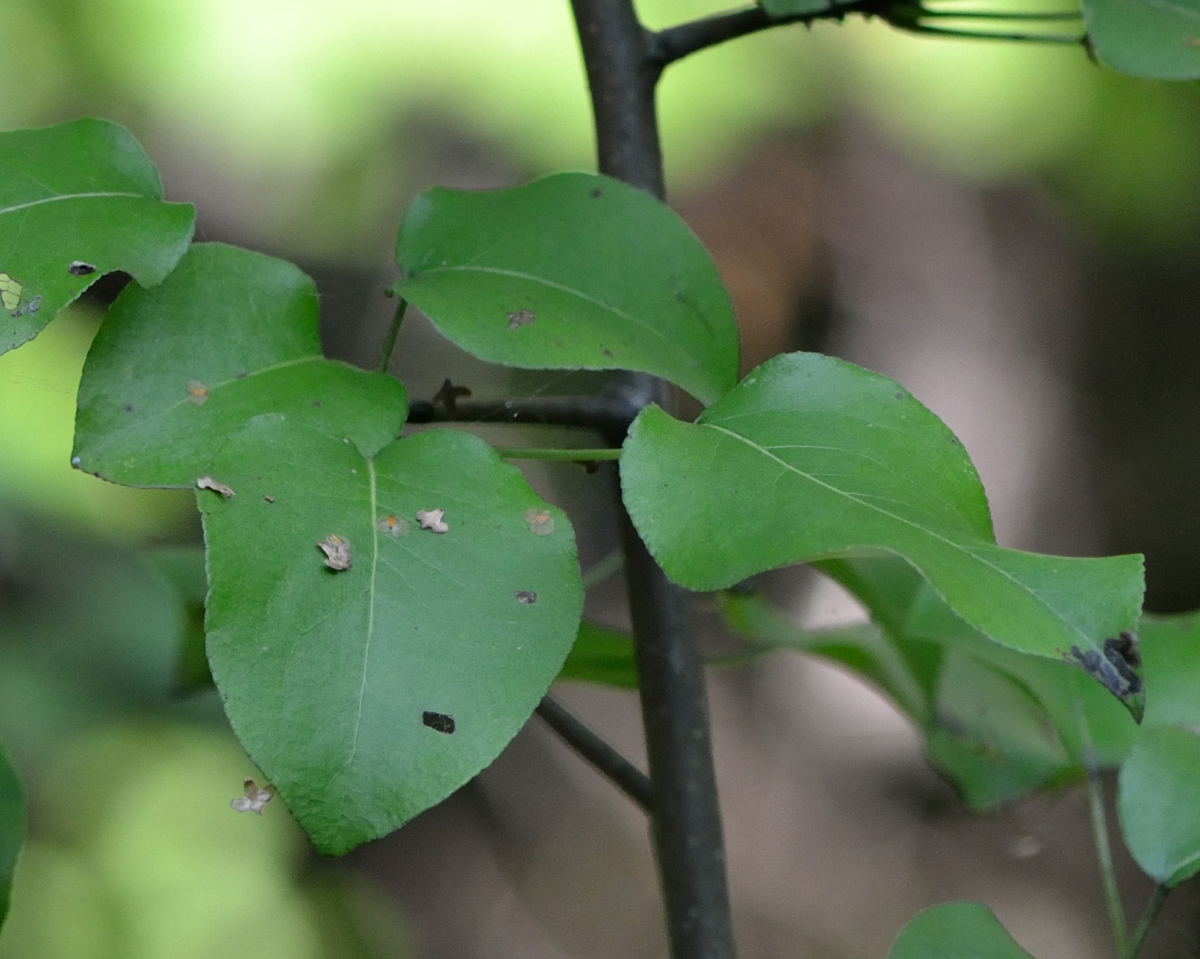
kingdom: Plantae
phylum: Tracheophyta
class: Magnoliopsida
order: Rosales
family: Rosaceae
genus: Pyrus
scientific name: Pyrus communis
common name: Pear
